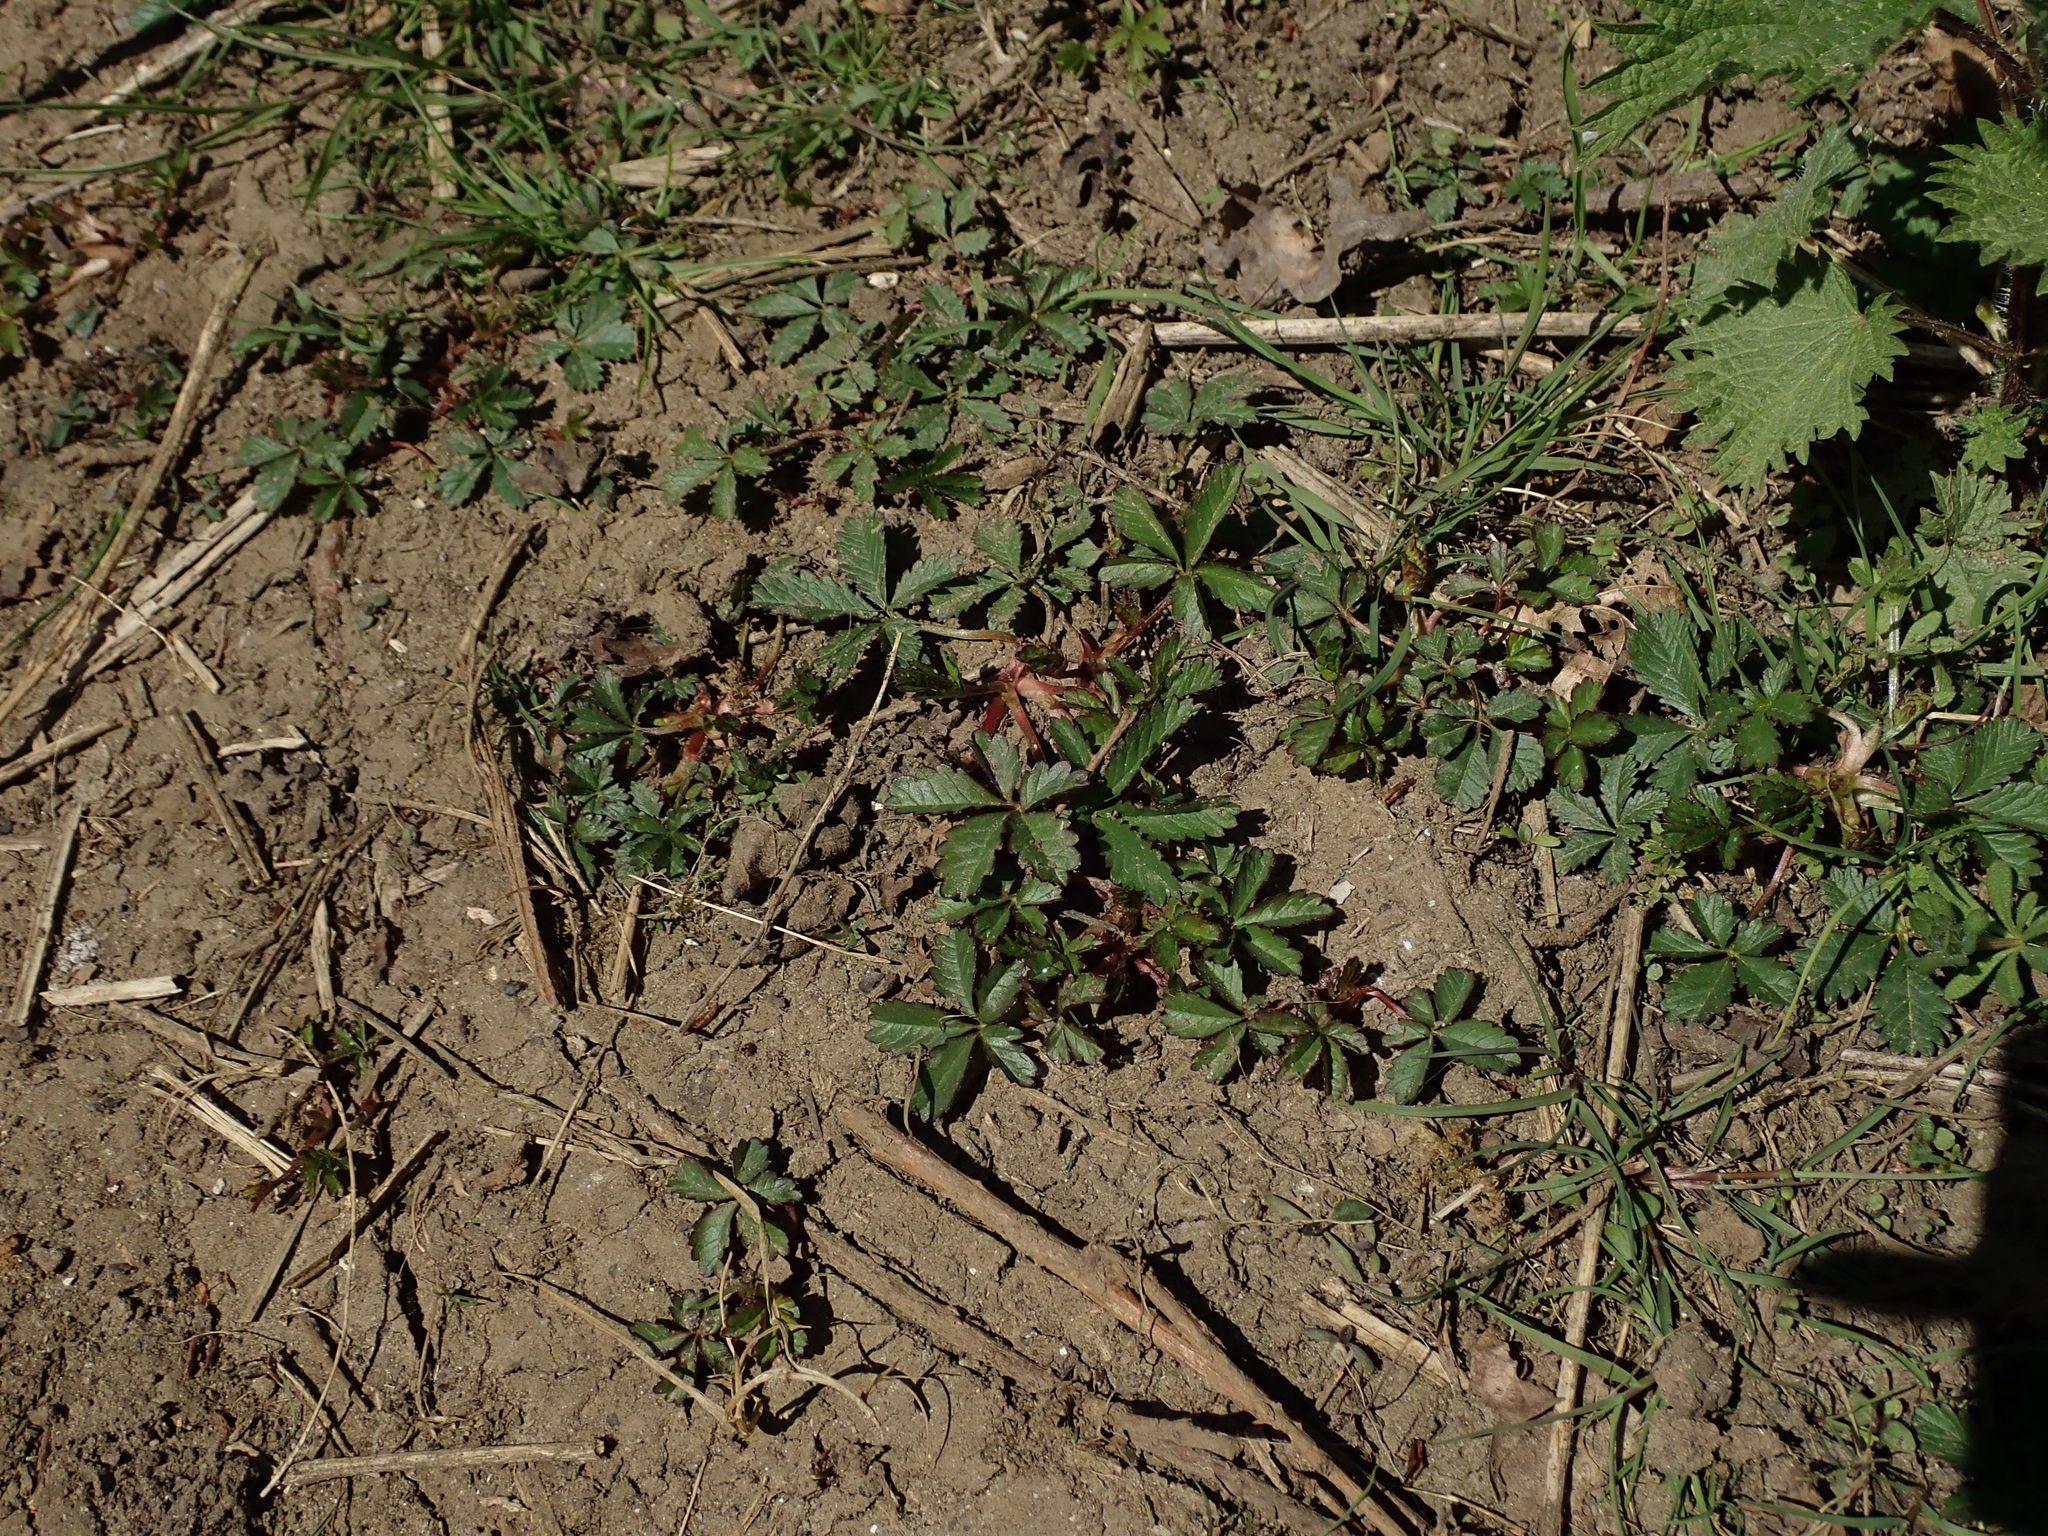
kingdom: Plantae
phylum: Tracheophyta
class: Magnoliopsida
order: Rosales
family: Rosaceae
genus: Potentilla
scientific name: Potentilla reptans
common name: Creeping cinquefoil
